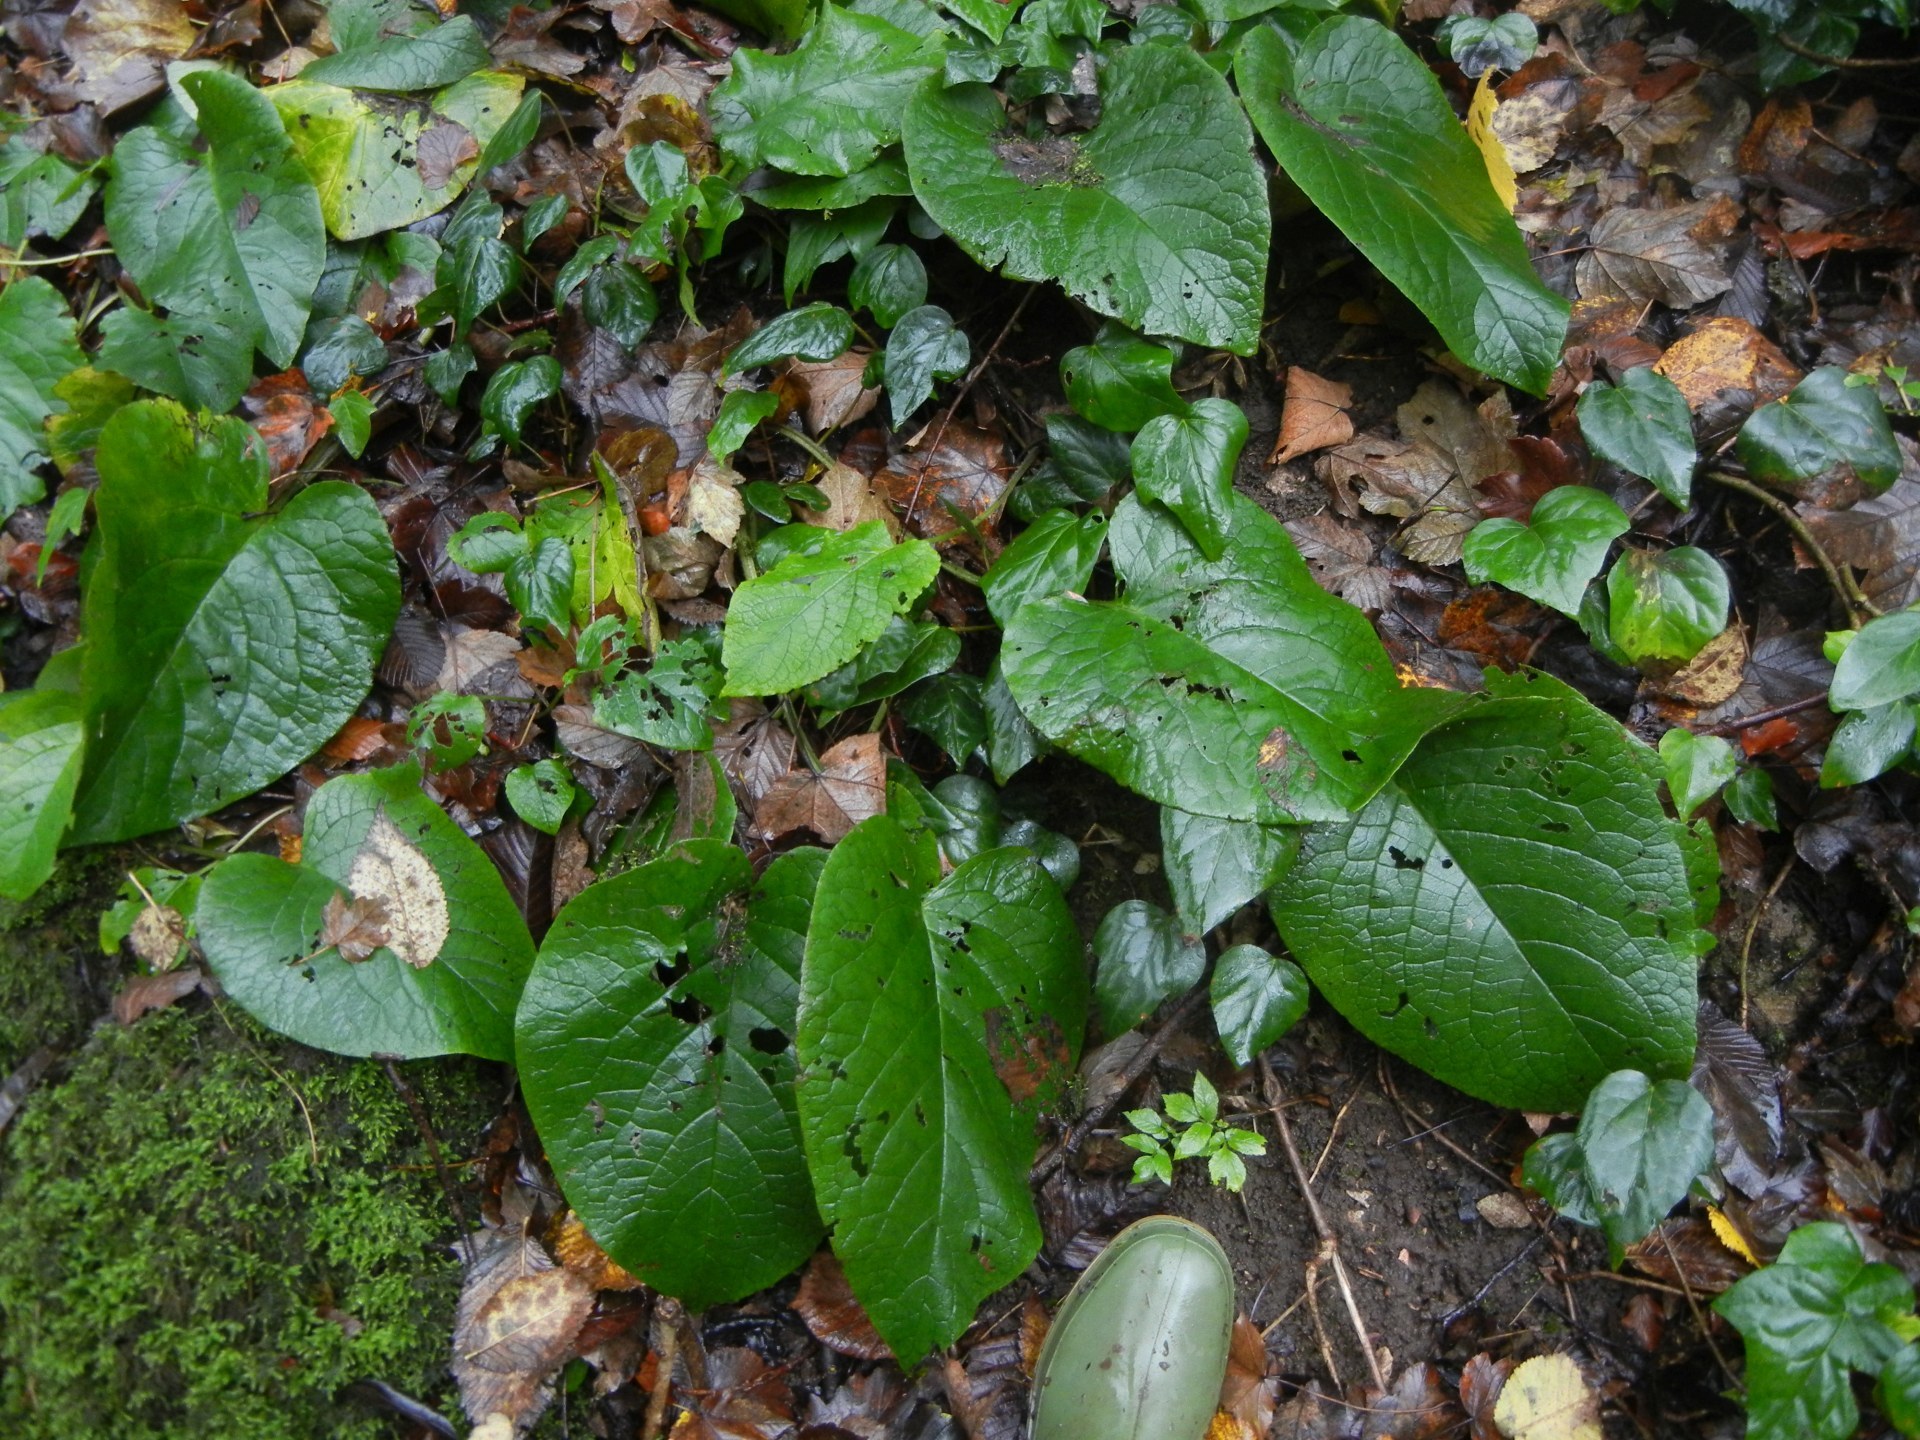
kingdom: Plantae
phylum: Tracheophyta
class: Magnoliopsida
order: Boraginales
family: Boraginaceae
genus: Trachystemon
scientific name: Trachystemon orientale
